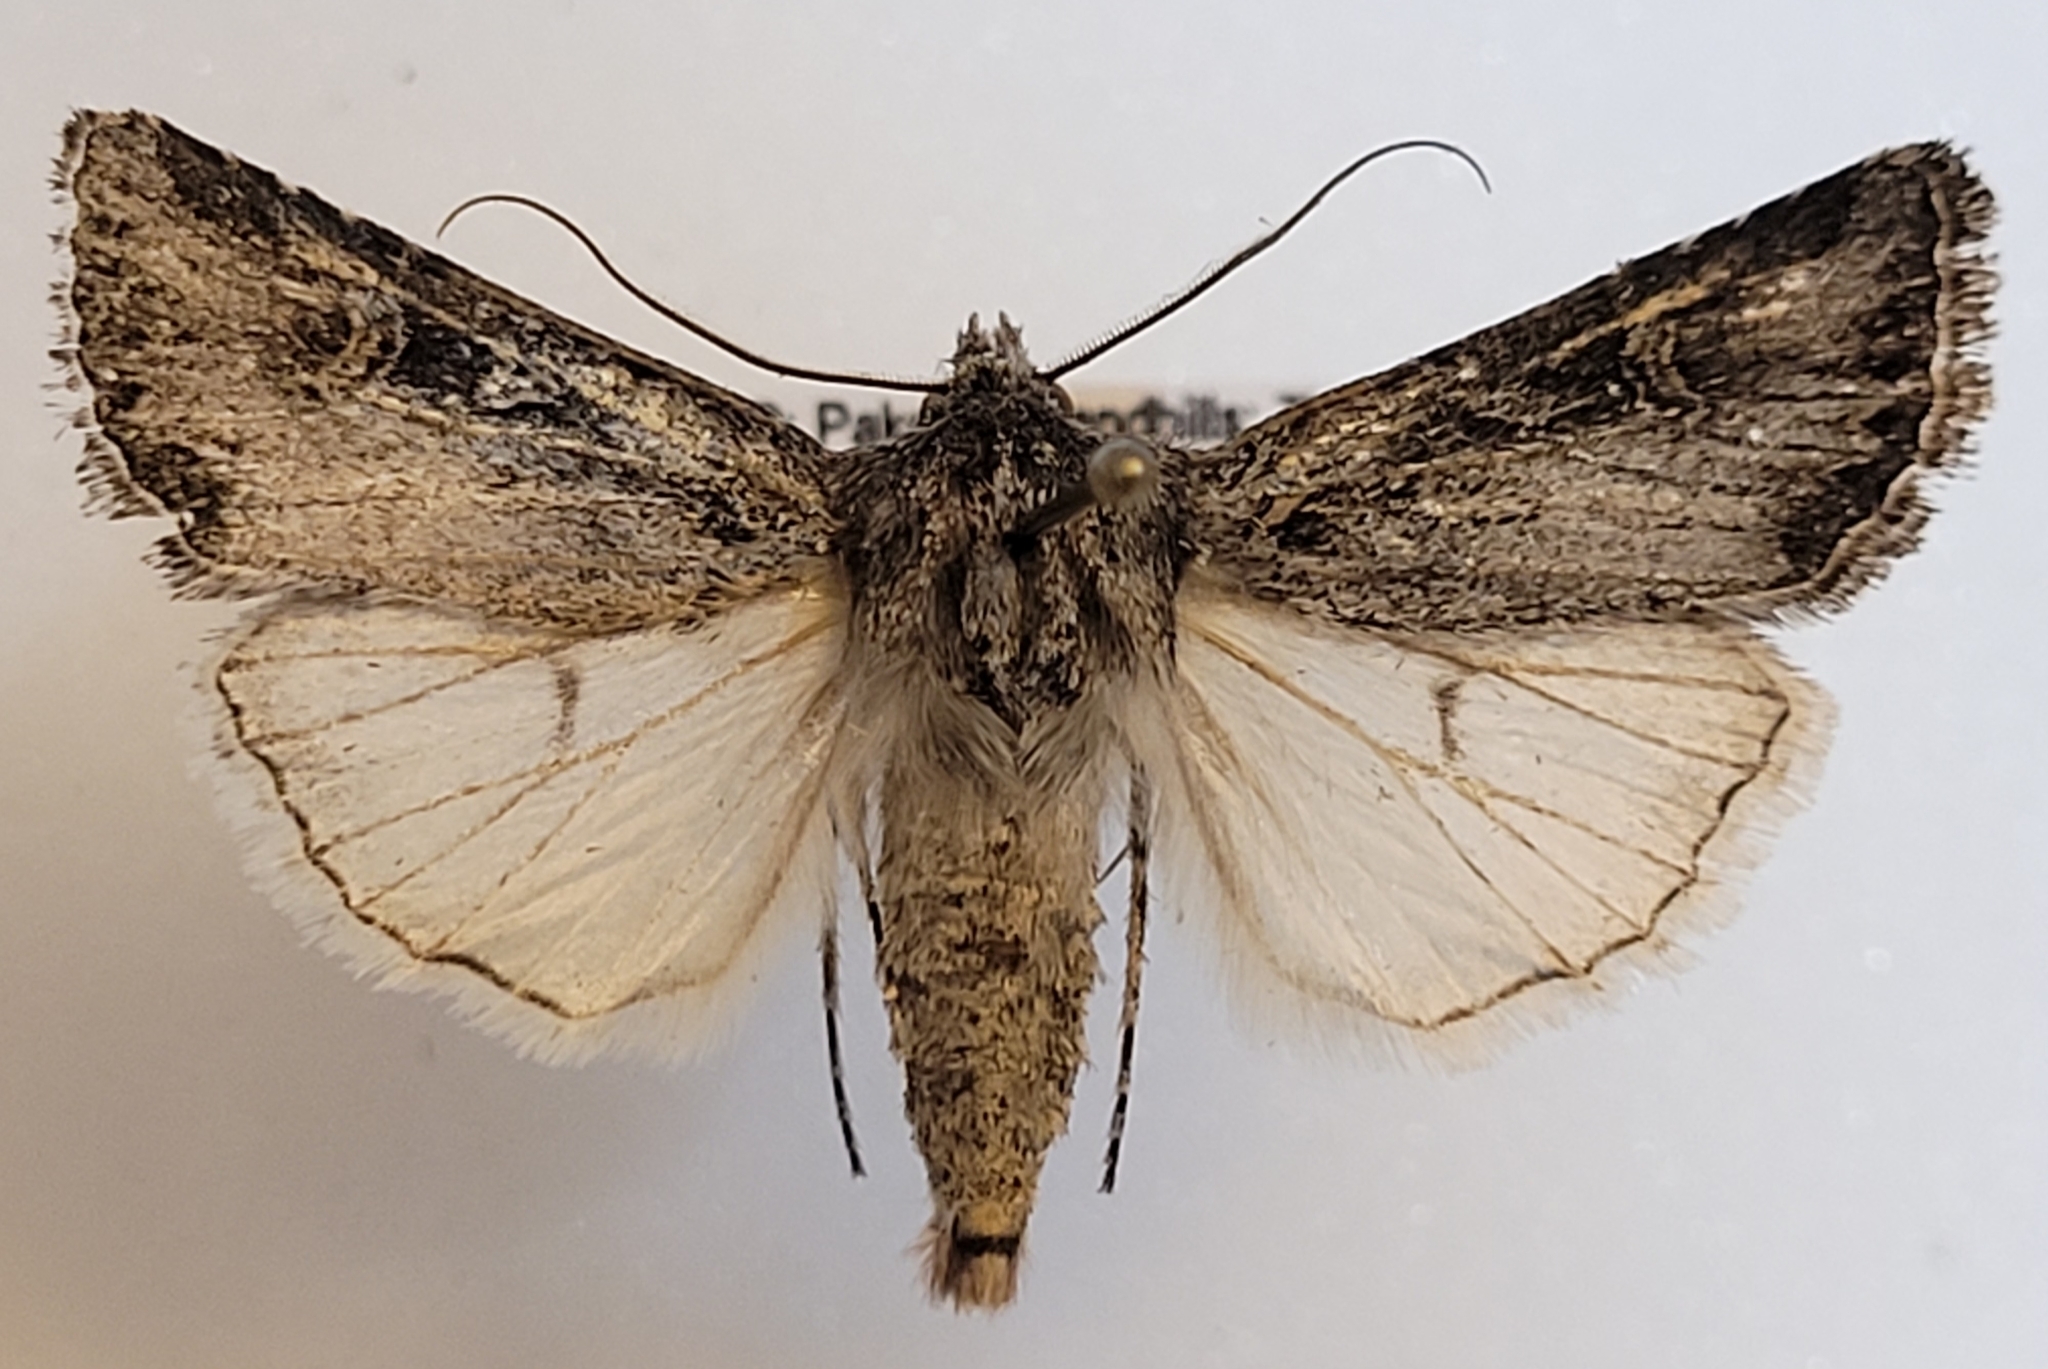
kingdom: Animalia
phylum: Arthropoda
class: Insecta
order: Lepidoptera
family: Noctuidae
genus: Euxoa
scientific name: Euxoa nevada
